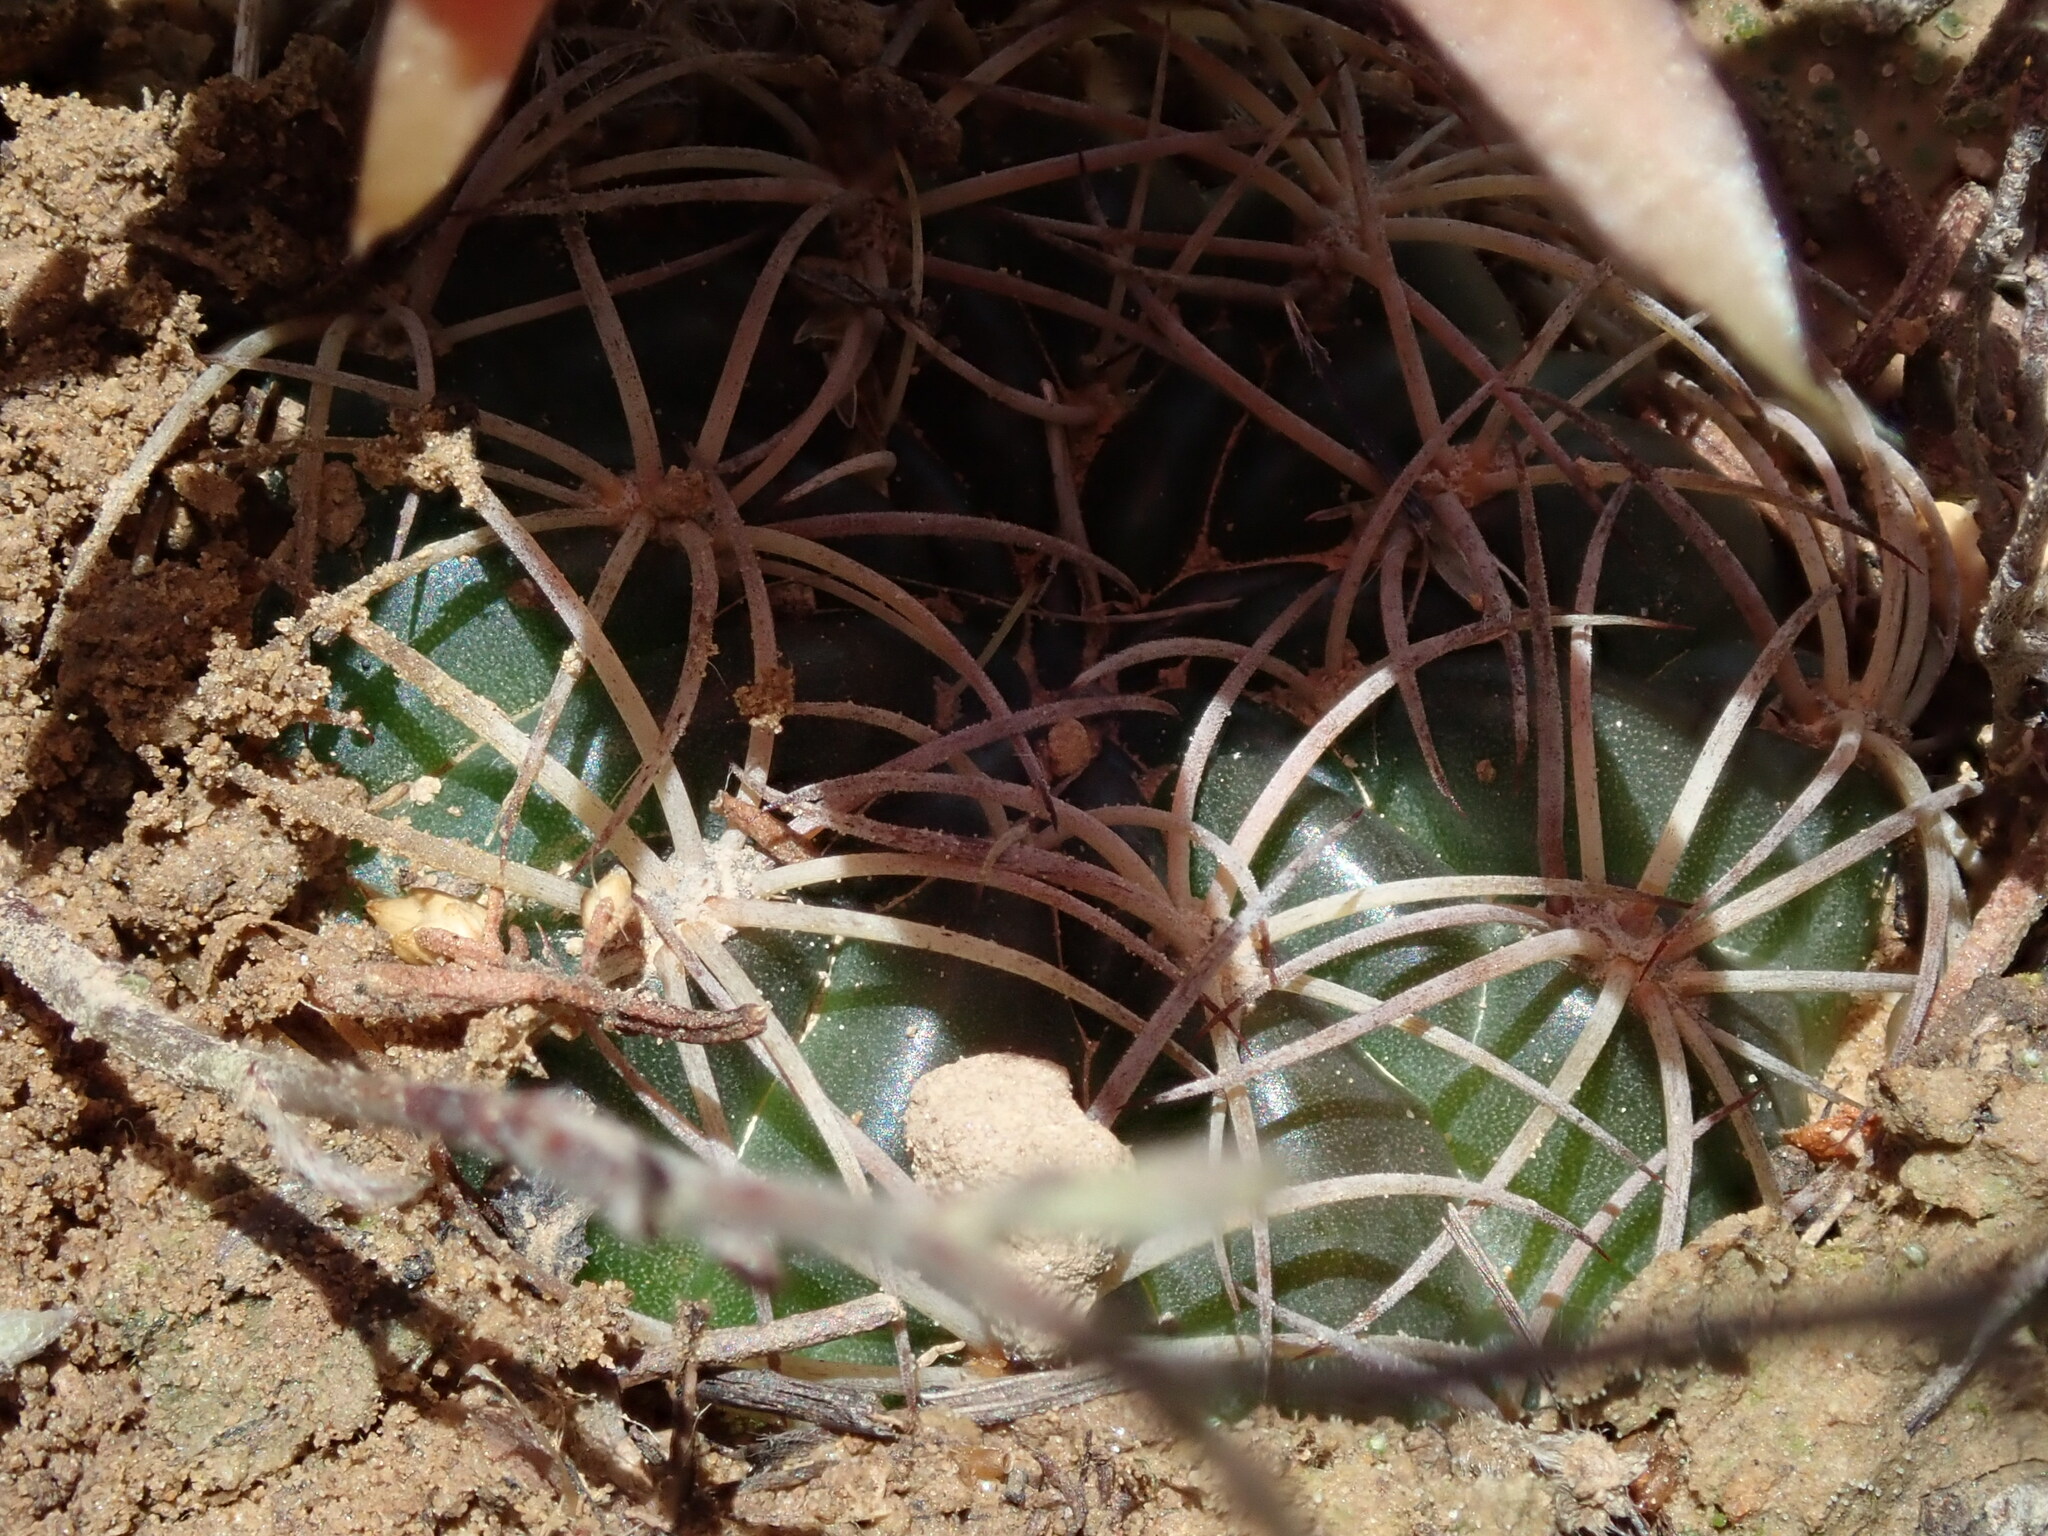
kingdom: Plantae
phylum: Tracheophyta
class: Magnoliopsida
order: Caryophyllales
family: Cactaceae
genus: Echinopsis
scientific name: Echinopsis rauschii
